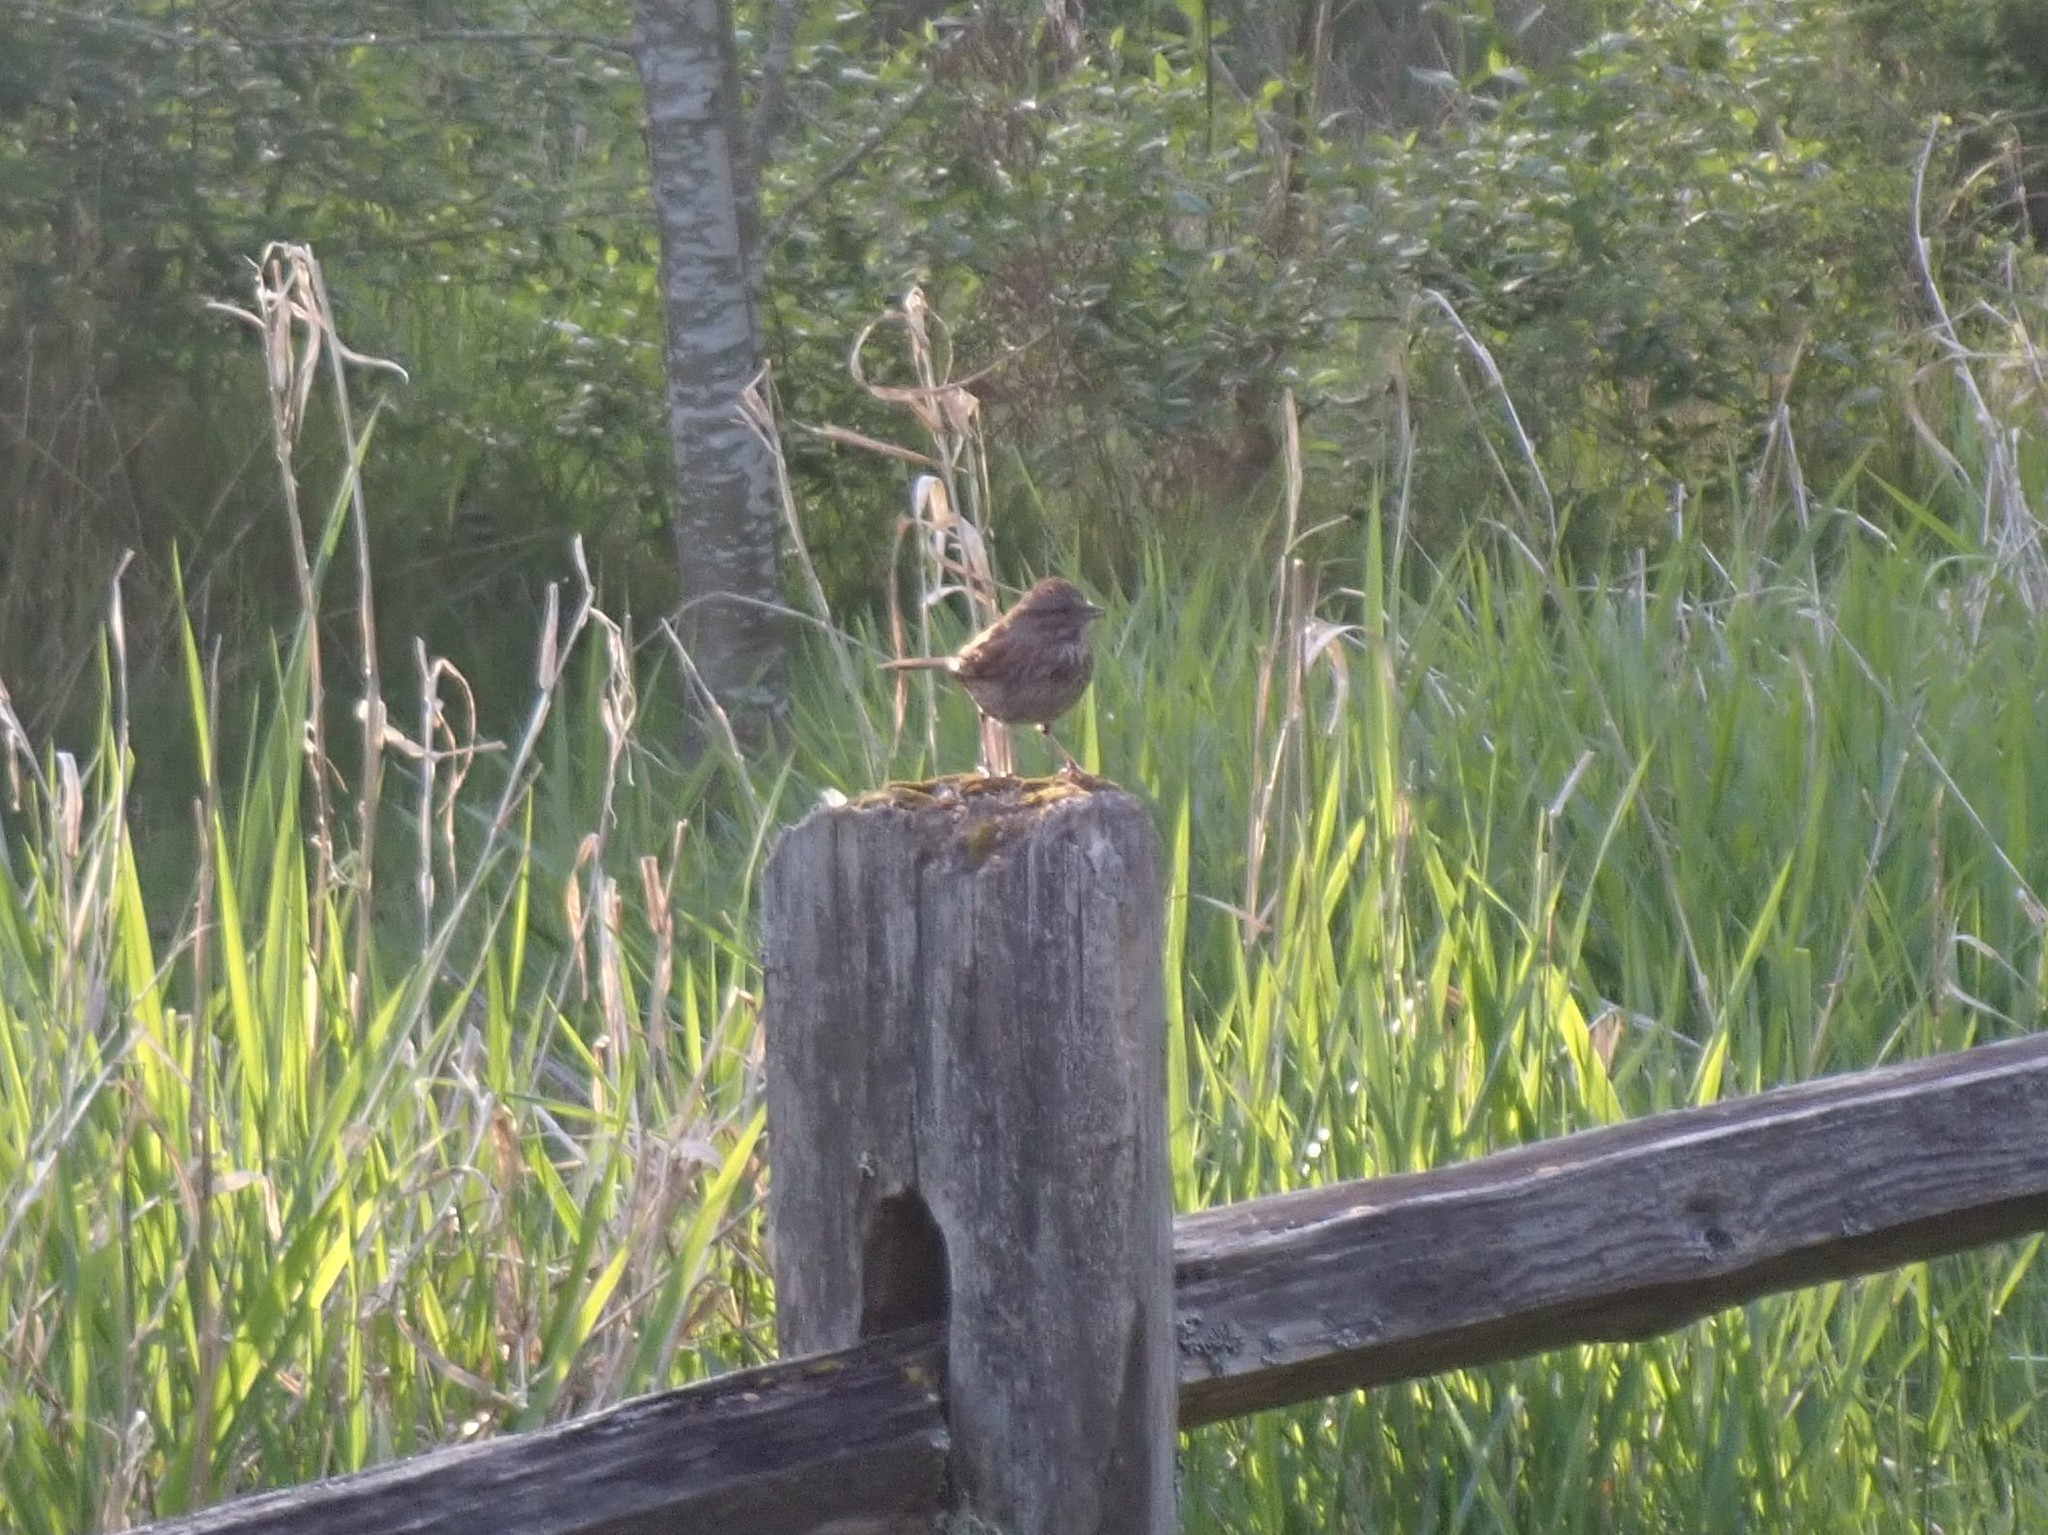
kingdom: Animalia
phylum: Chordata
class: Aves
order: Passeriformes
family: Passerellidae
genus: Melospiza
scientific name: Melospiza melodia
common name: Song sparrow
